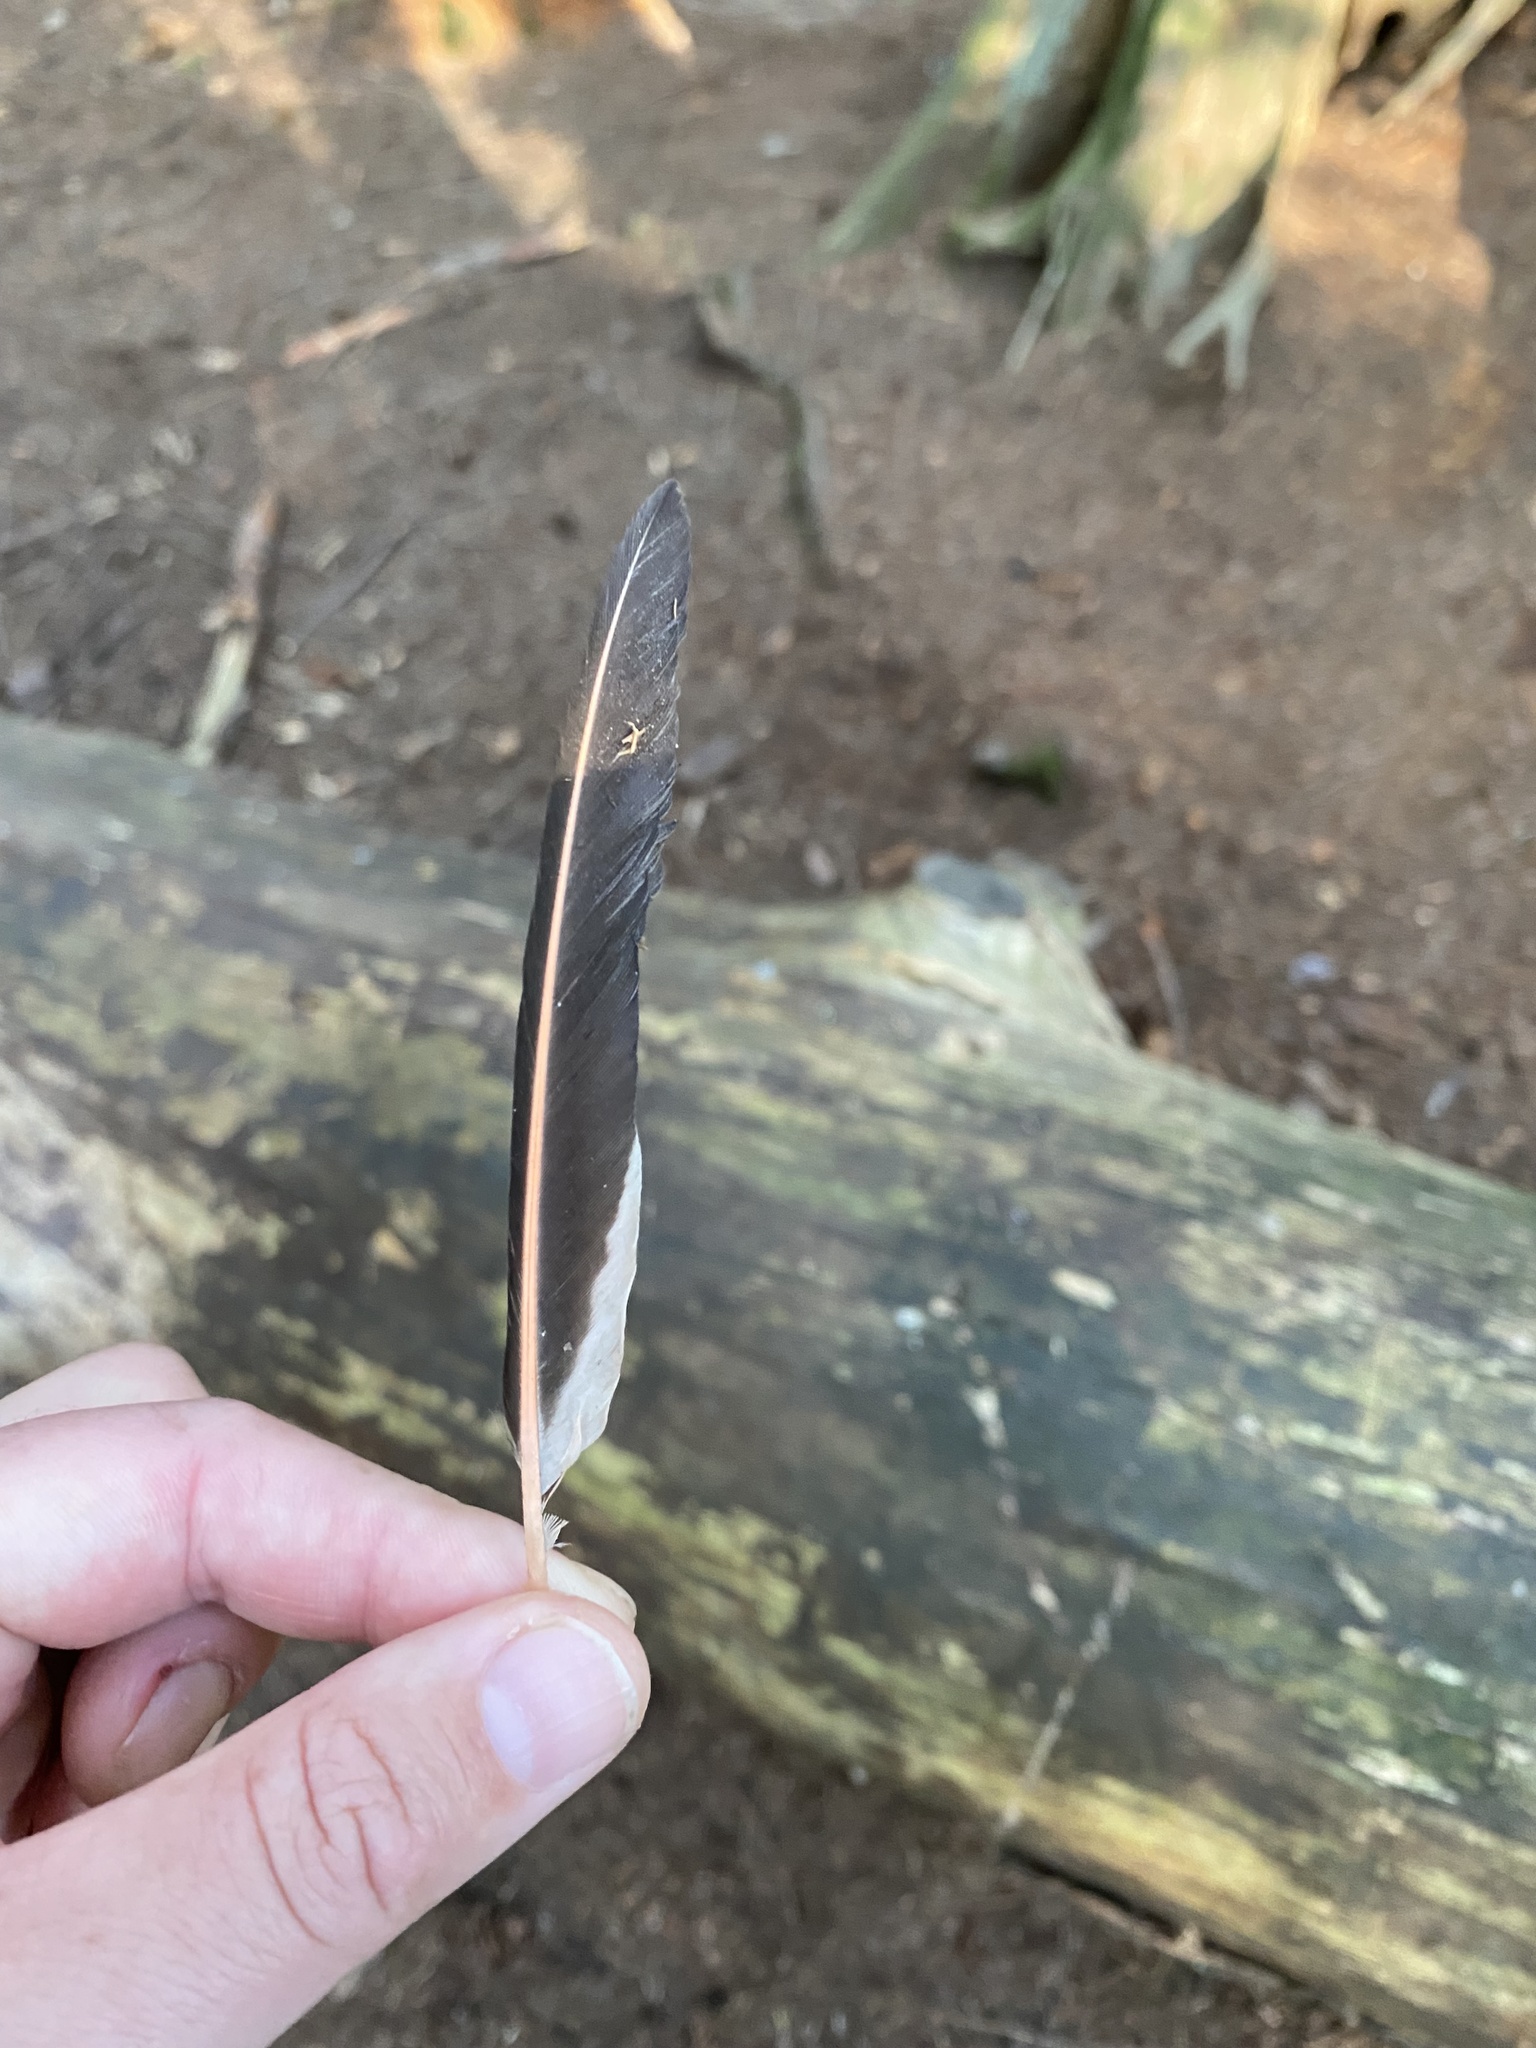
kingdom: Animalia
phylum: Chordata
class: Aves
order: Piciformes
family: Picidae
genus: Colaptes
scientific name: Colaptes auratus
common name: Northern flicker
